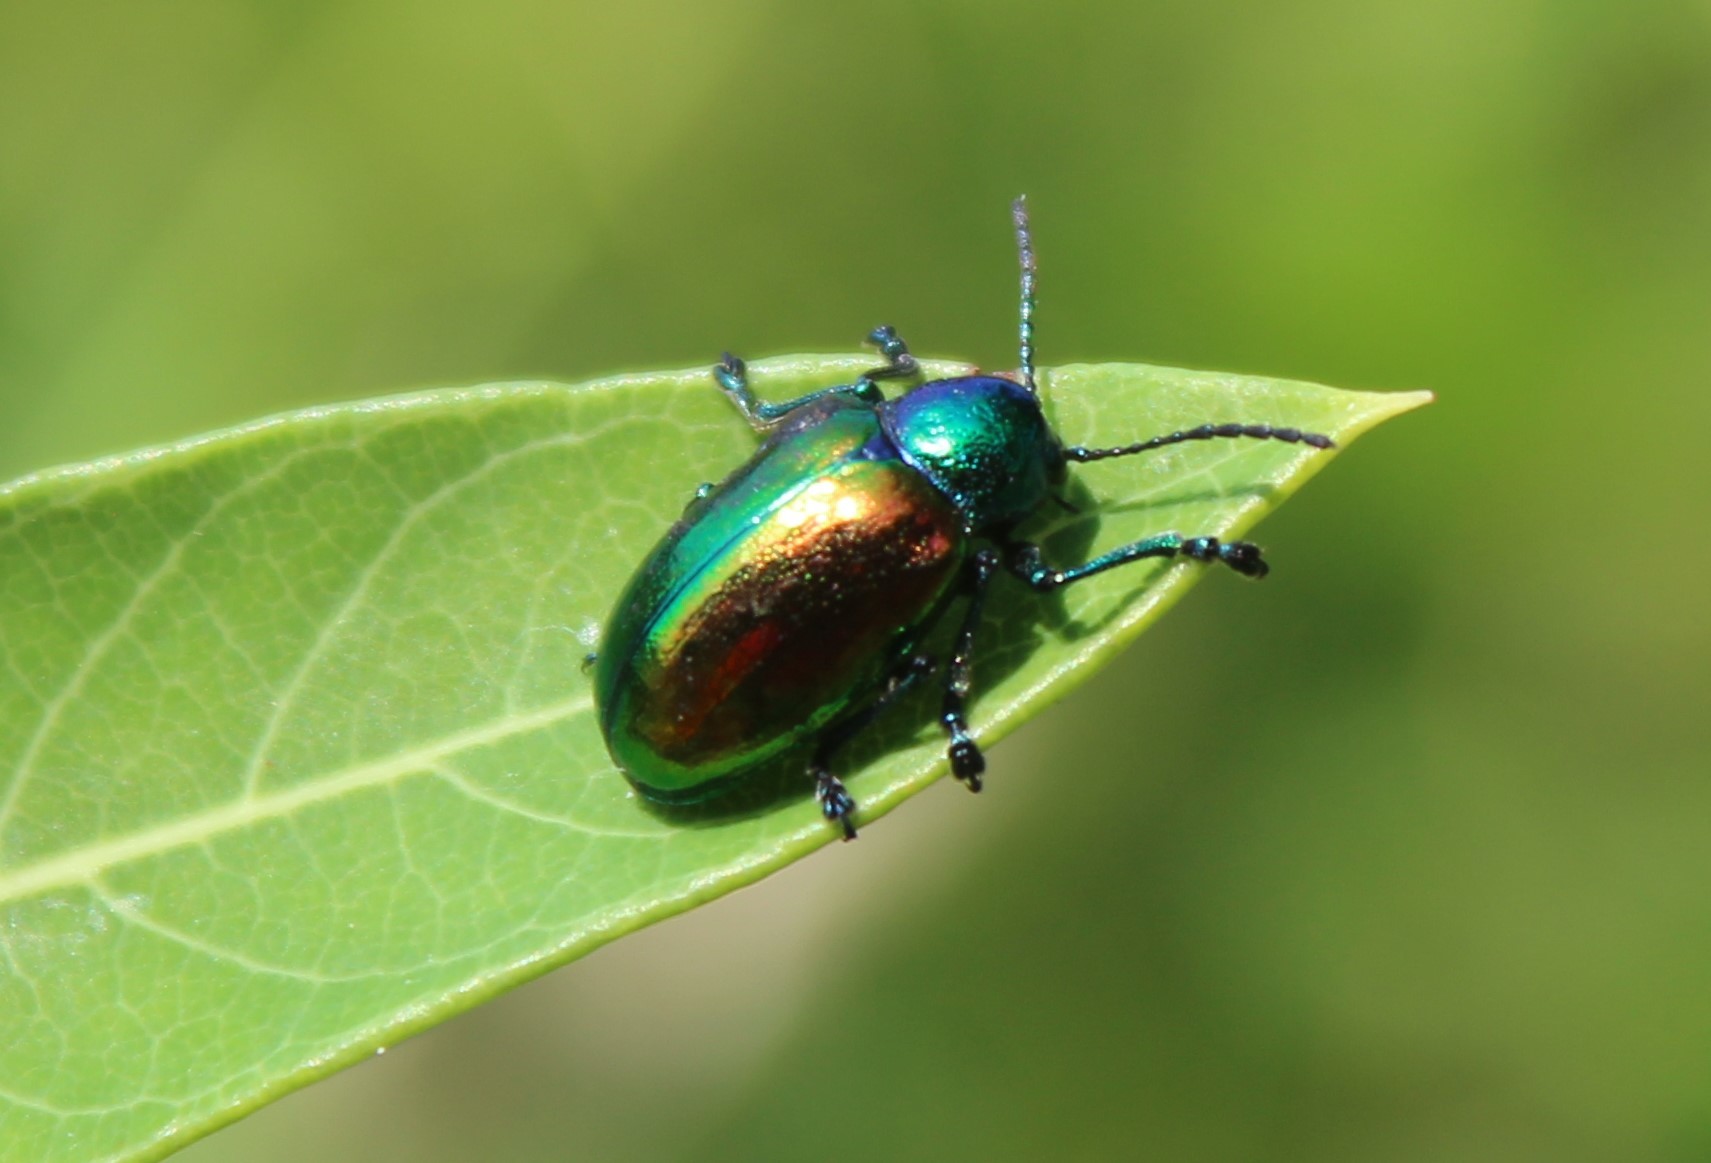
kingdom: Animalia
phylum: Arthropoda
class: Insecta
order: Coleoptera
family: Chrysomelidae
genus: Chrysochus
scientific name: Chrysochus auratus
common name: Dogbane leaf beetle
